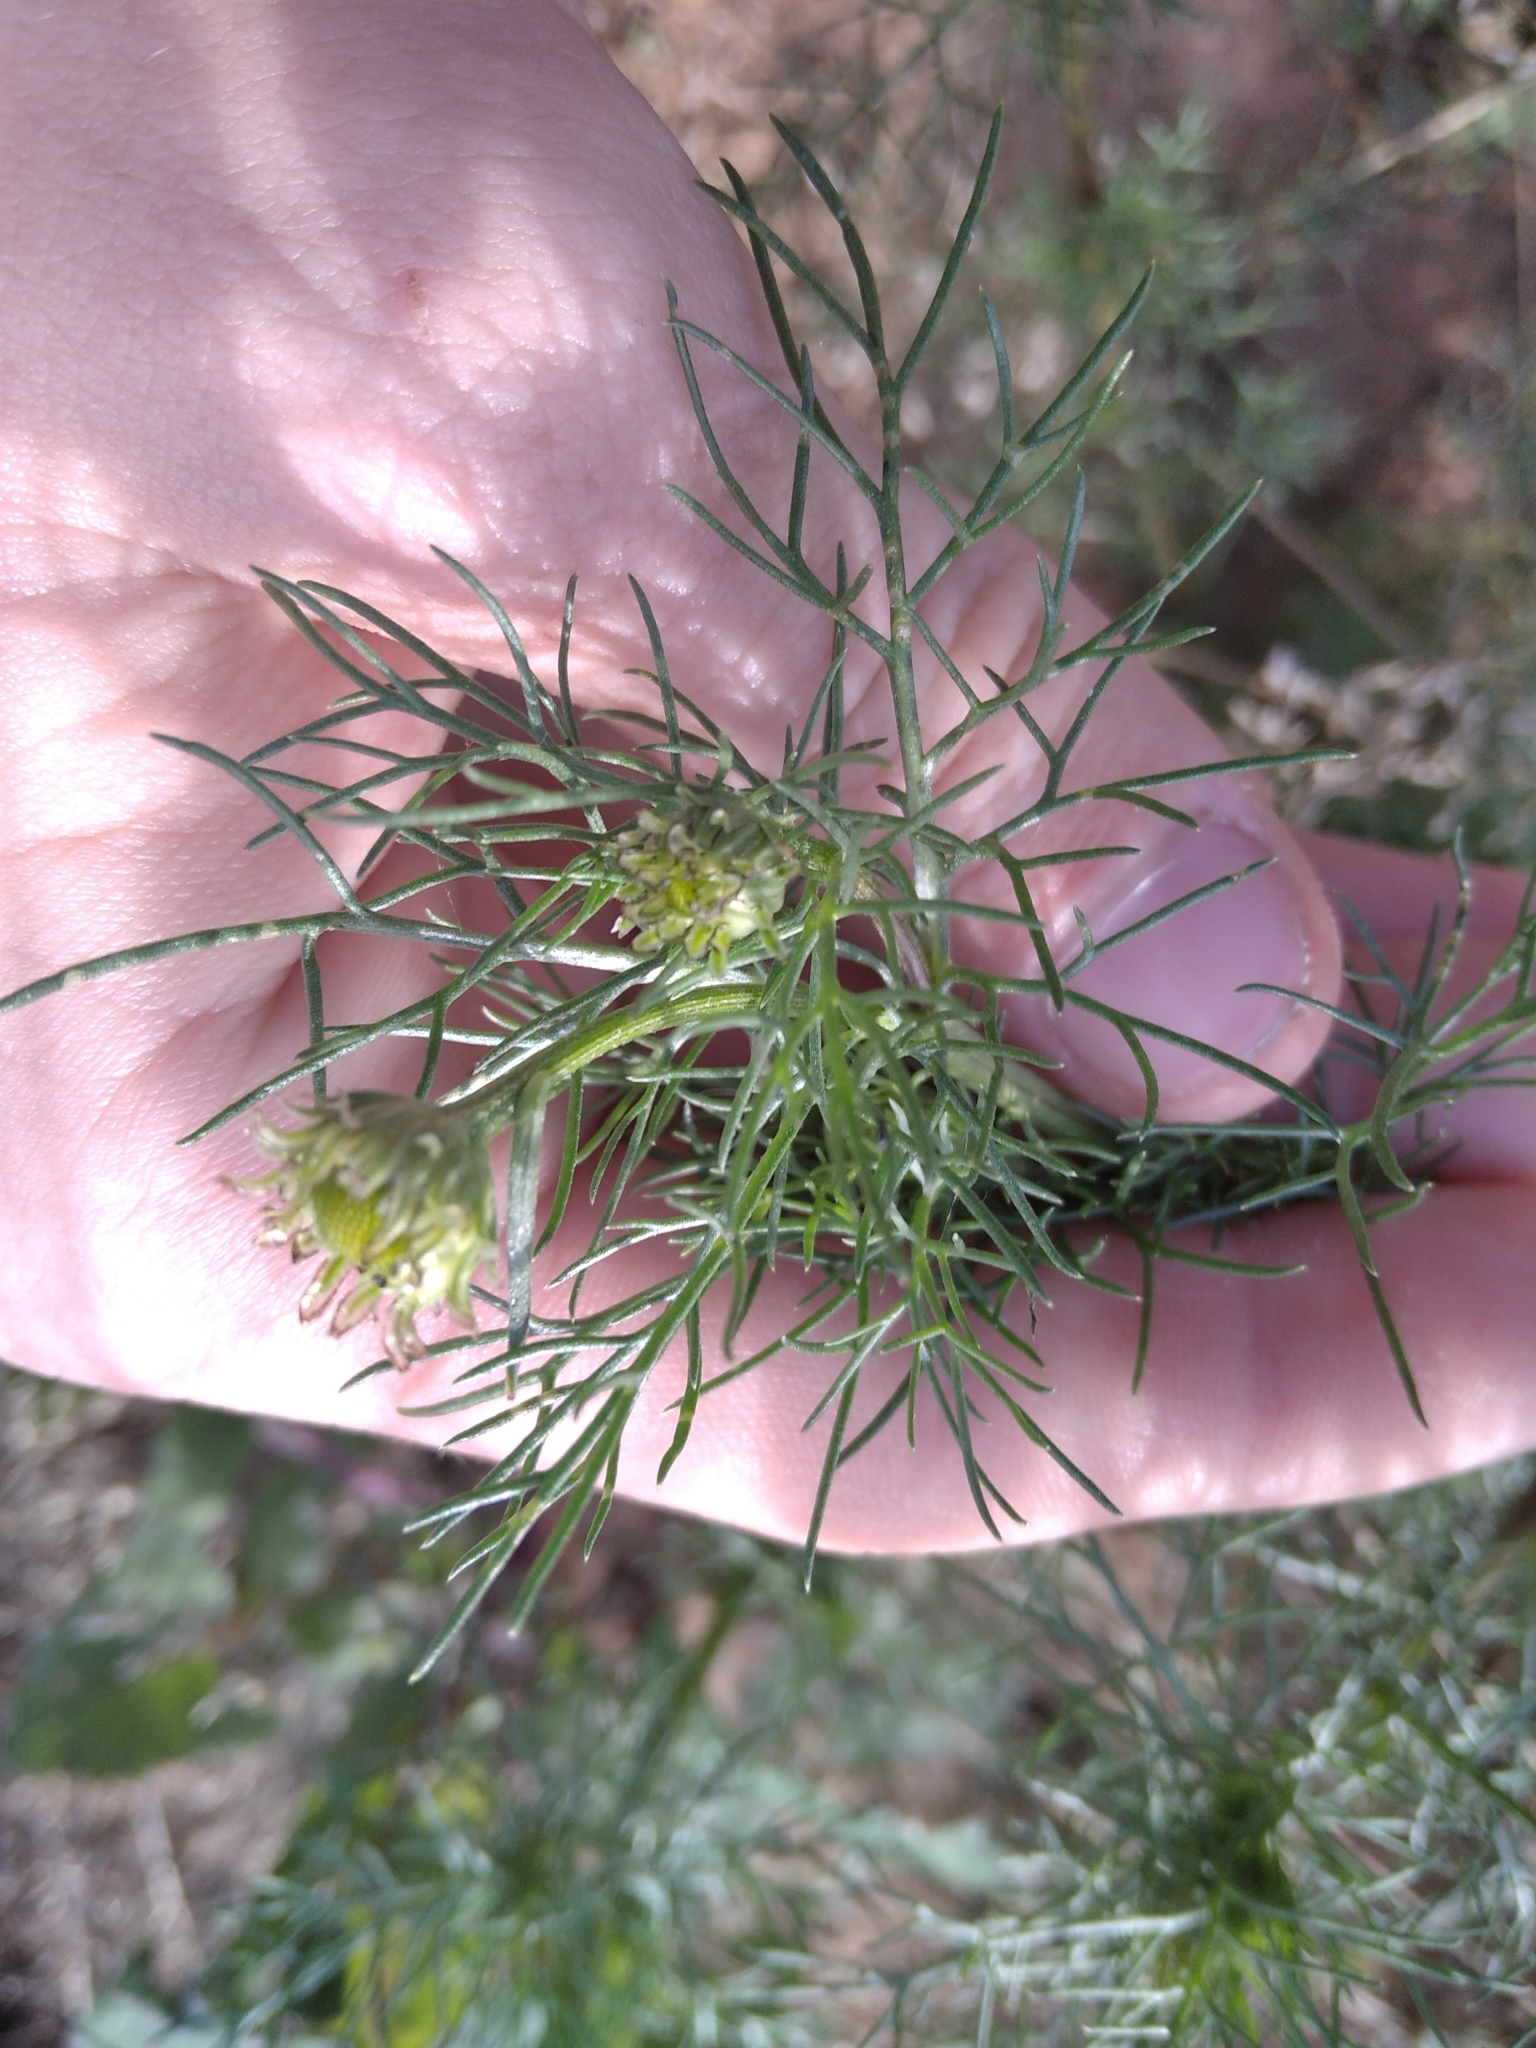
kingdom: Plantae
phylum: Tracheophyta
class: Magnoliopsida
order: Asterales
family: Asteraceae
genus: Tripleurospermum
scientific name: Tripleurospermum inodorum
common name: Scentless mayweed
